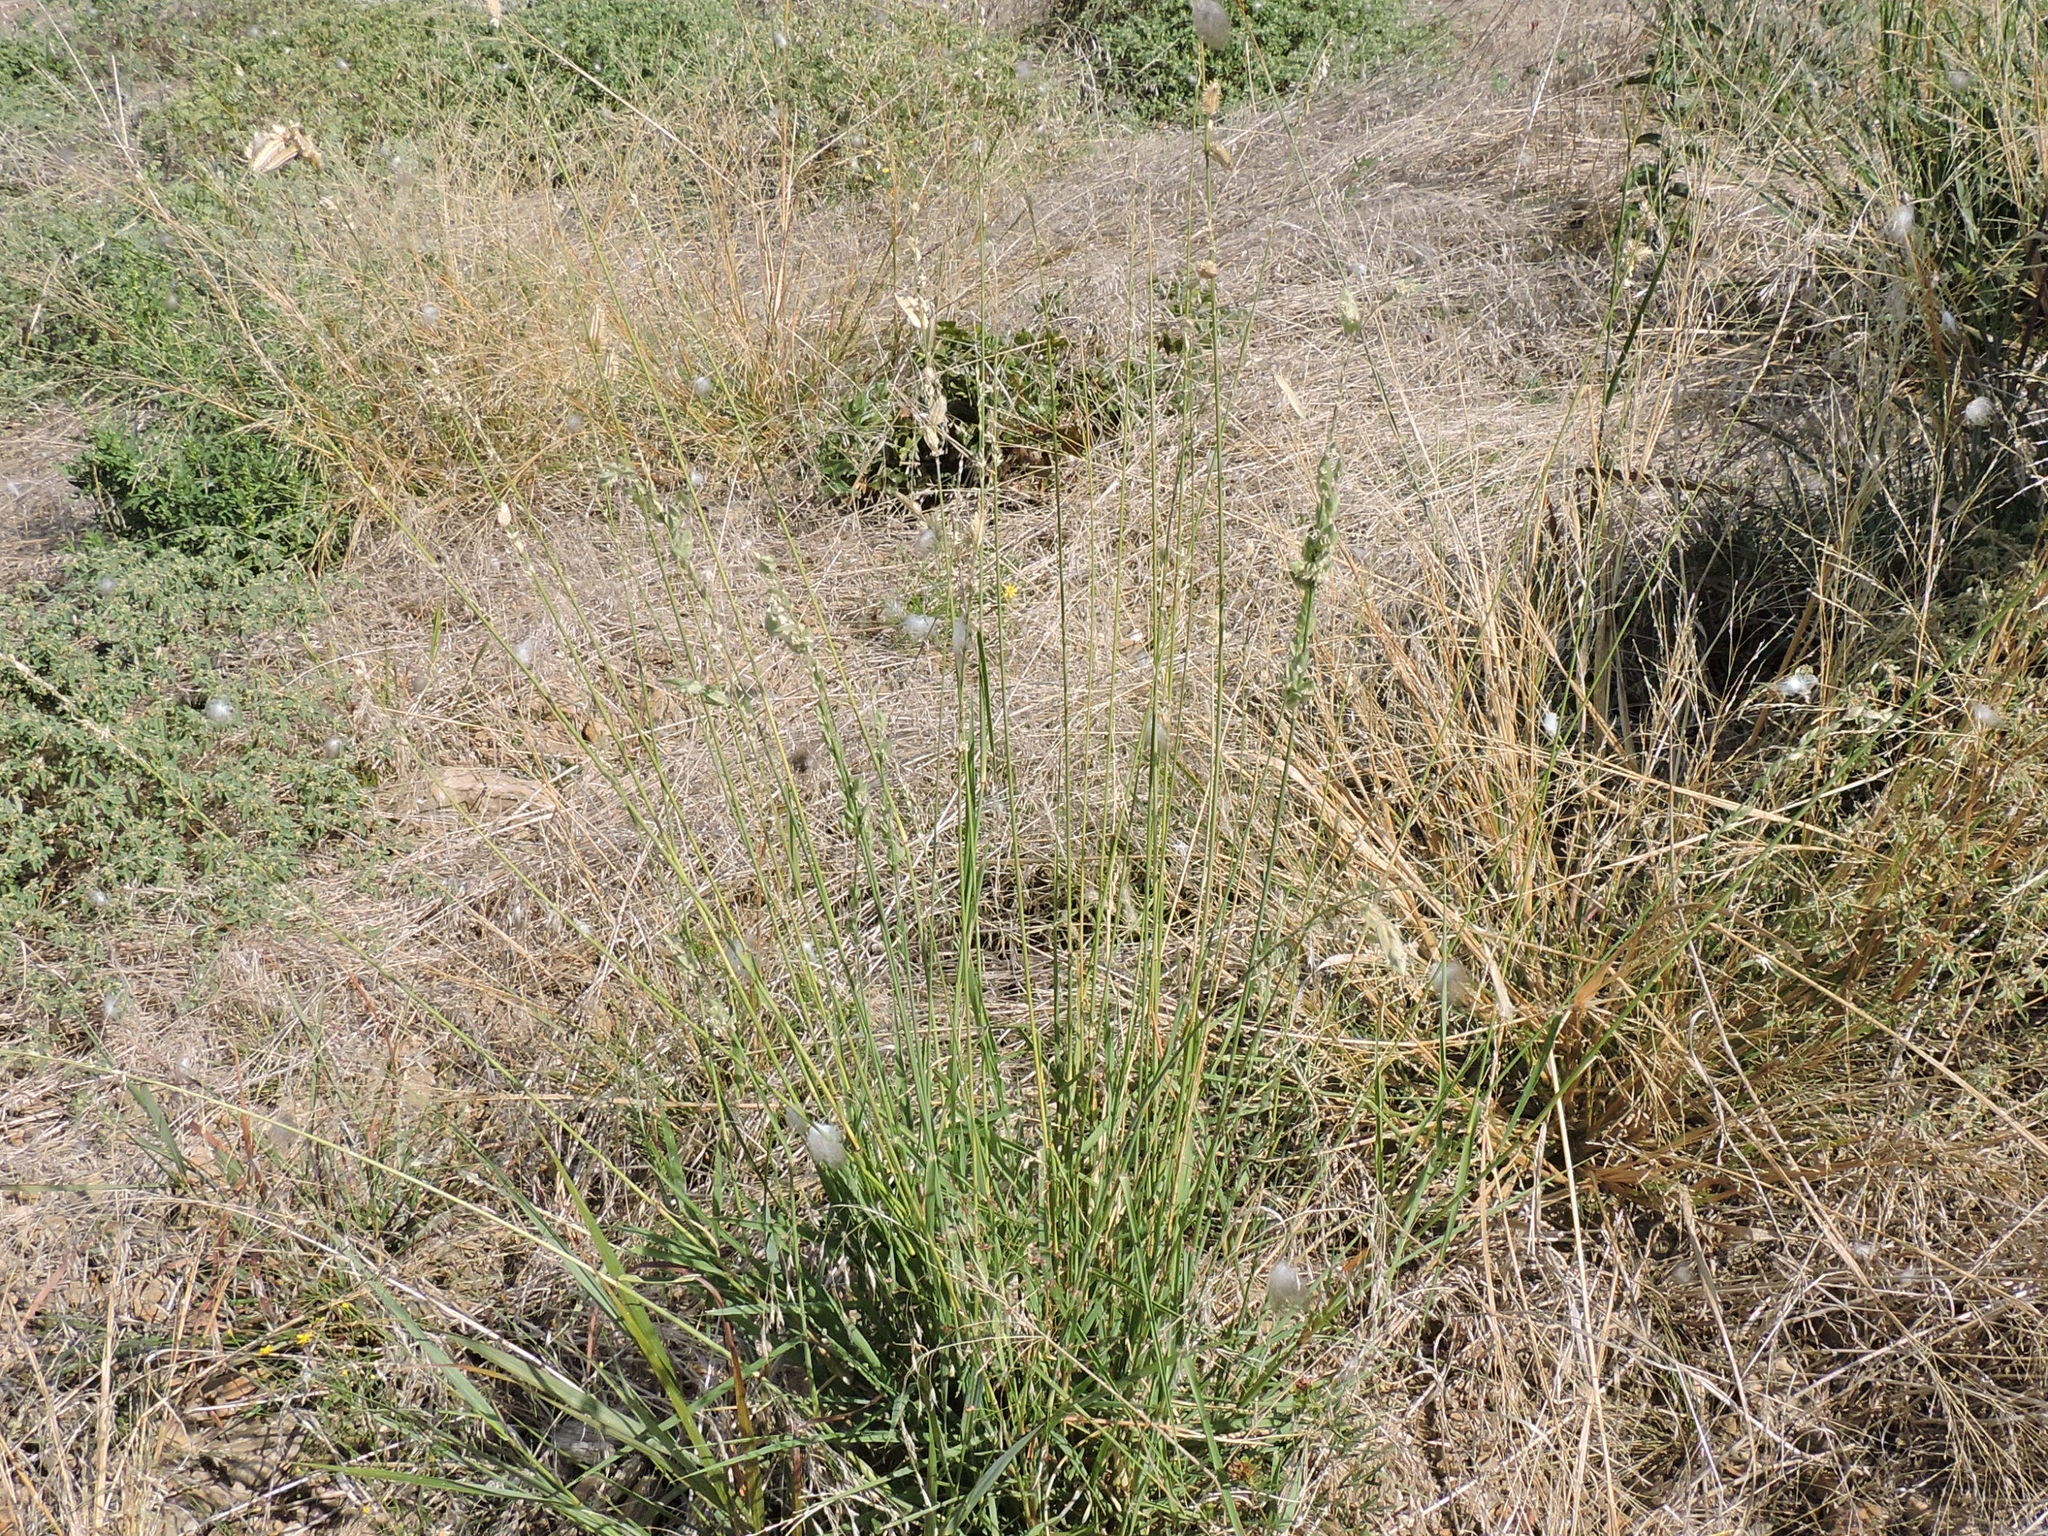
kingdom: Plantae
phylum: Tracheophyta
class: Liliopsida
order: Poales
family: Poaceae
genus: Eragrostis
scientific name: Eragrostis superba
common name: Wilman lovegrass
